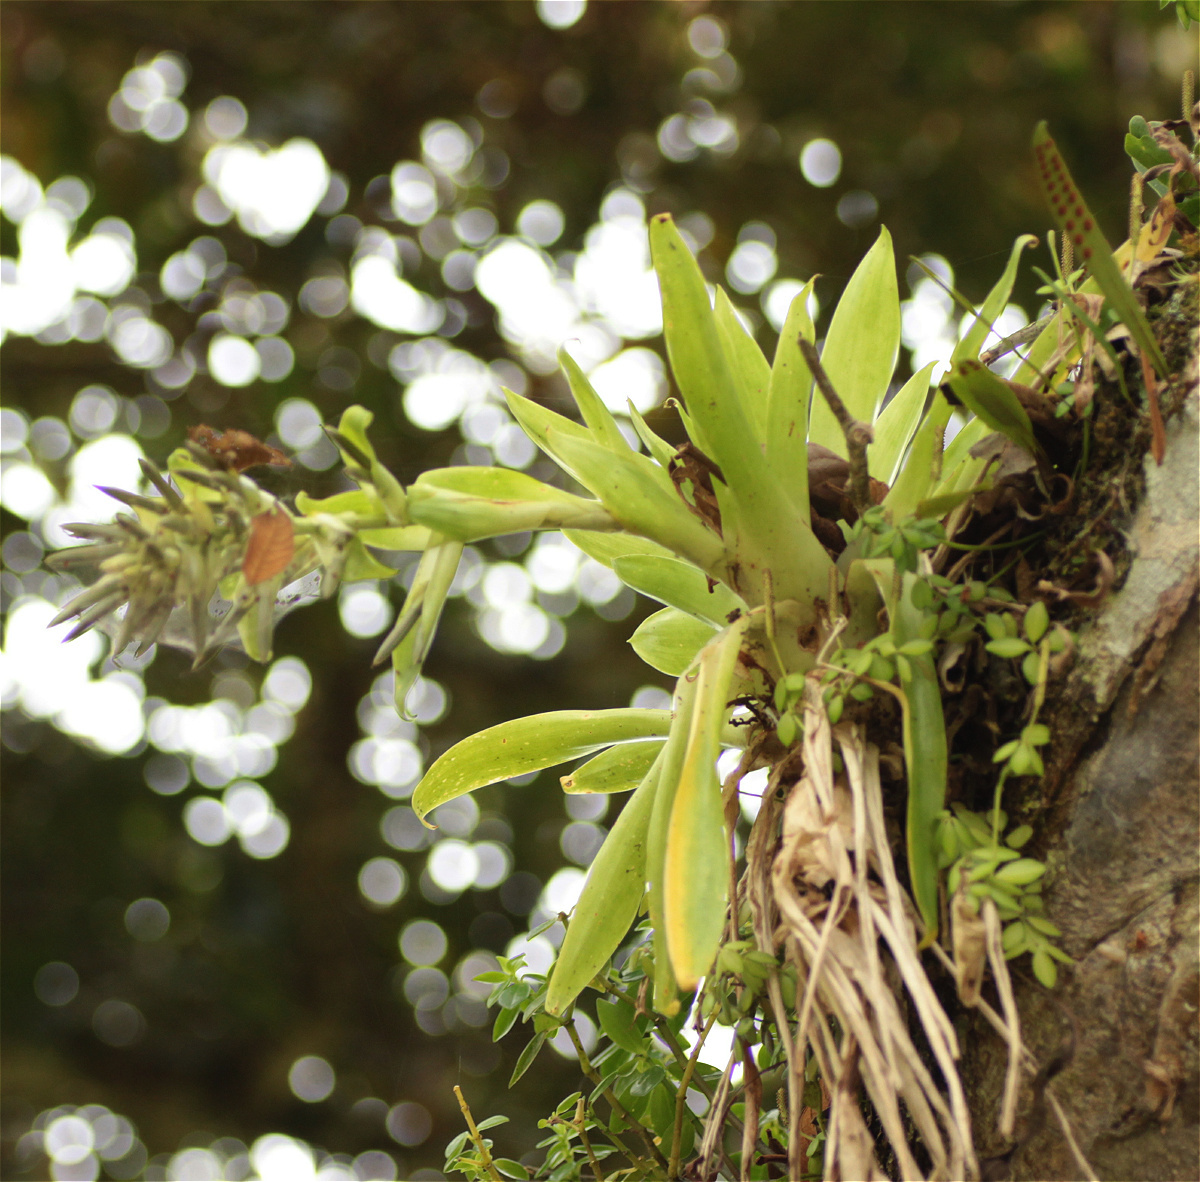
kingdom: Plantae
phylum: Tracheophyta
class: Liliopsida
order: Poales
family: Bromeliaceae
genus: Tillandsia
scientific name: Tillandsia biflora
